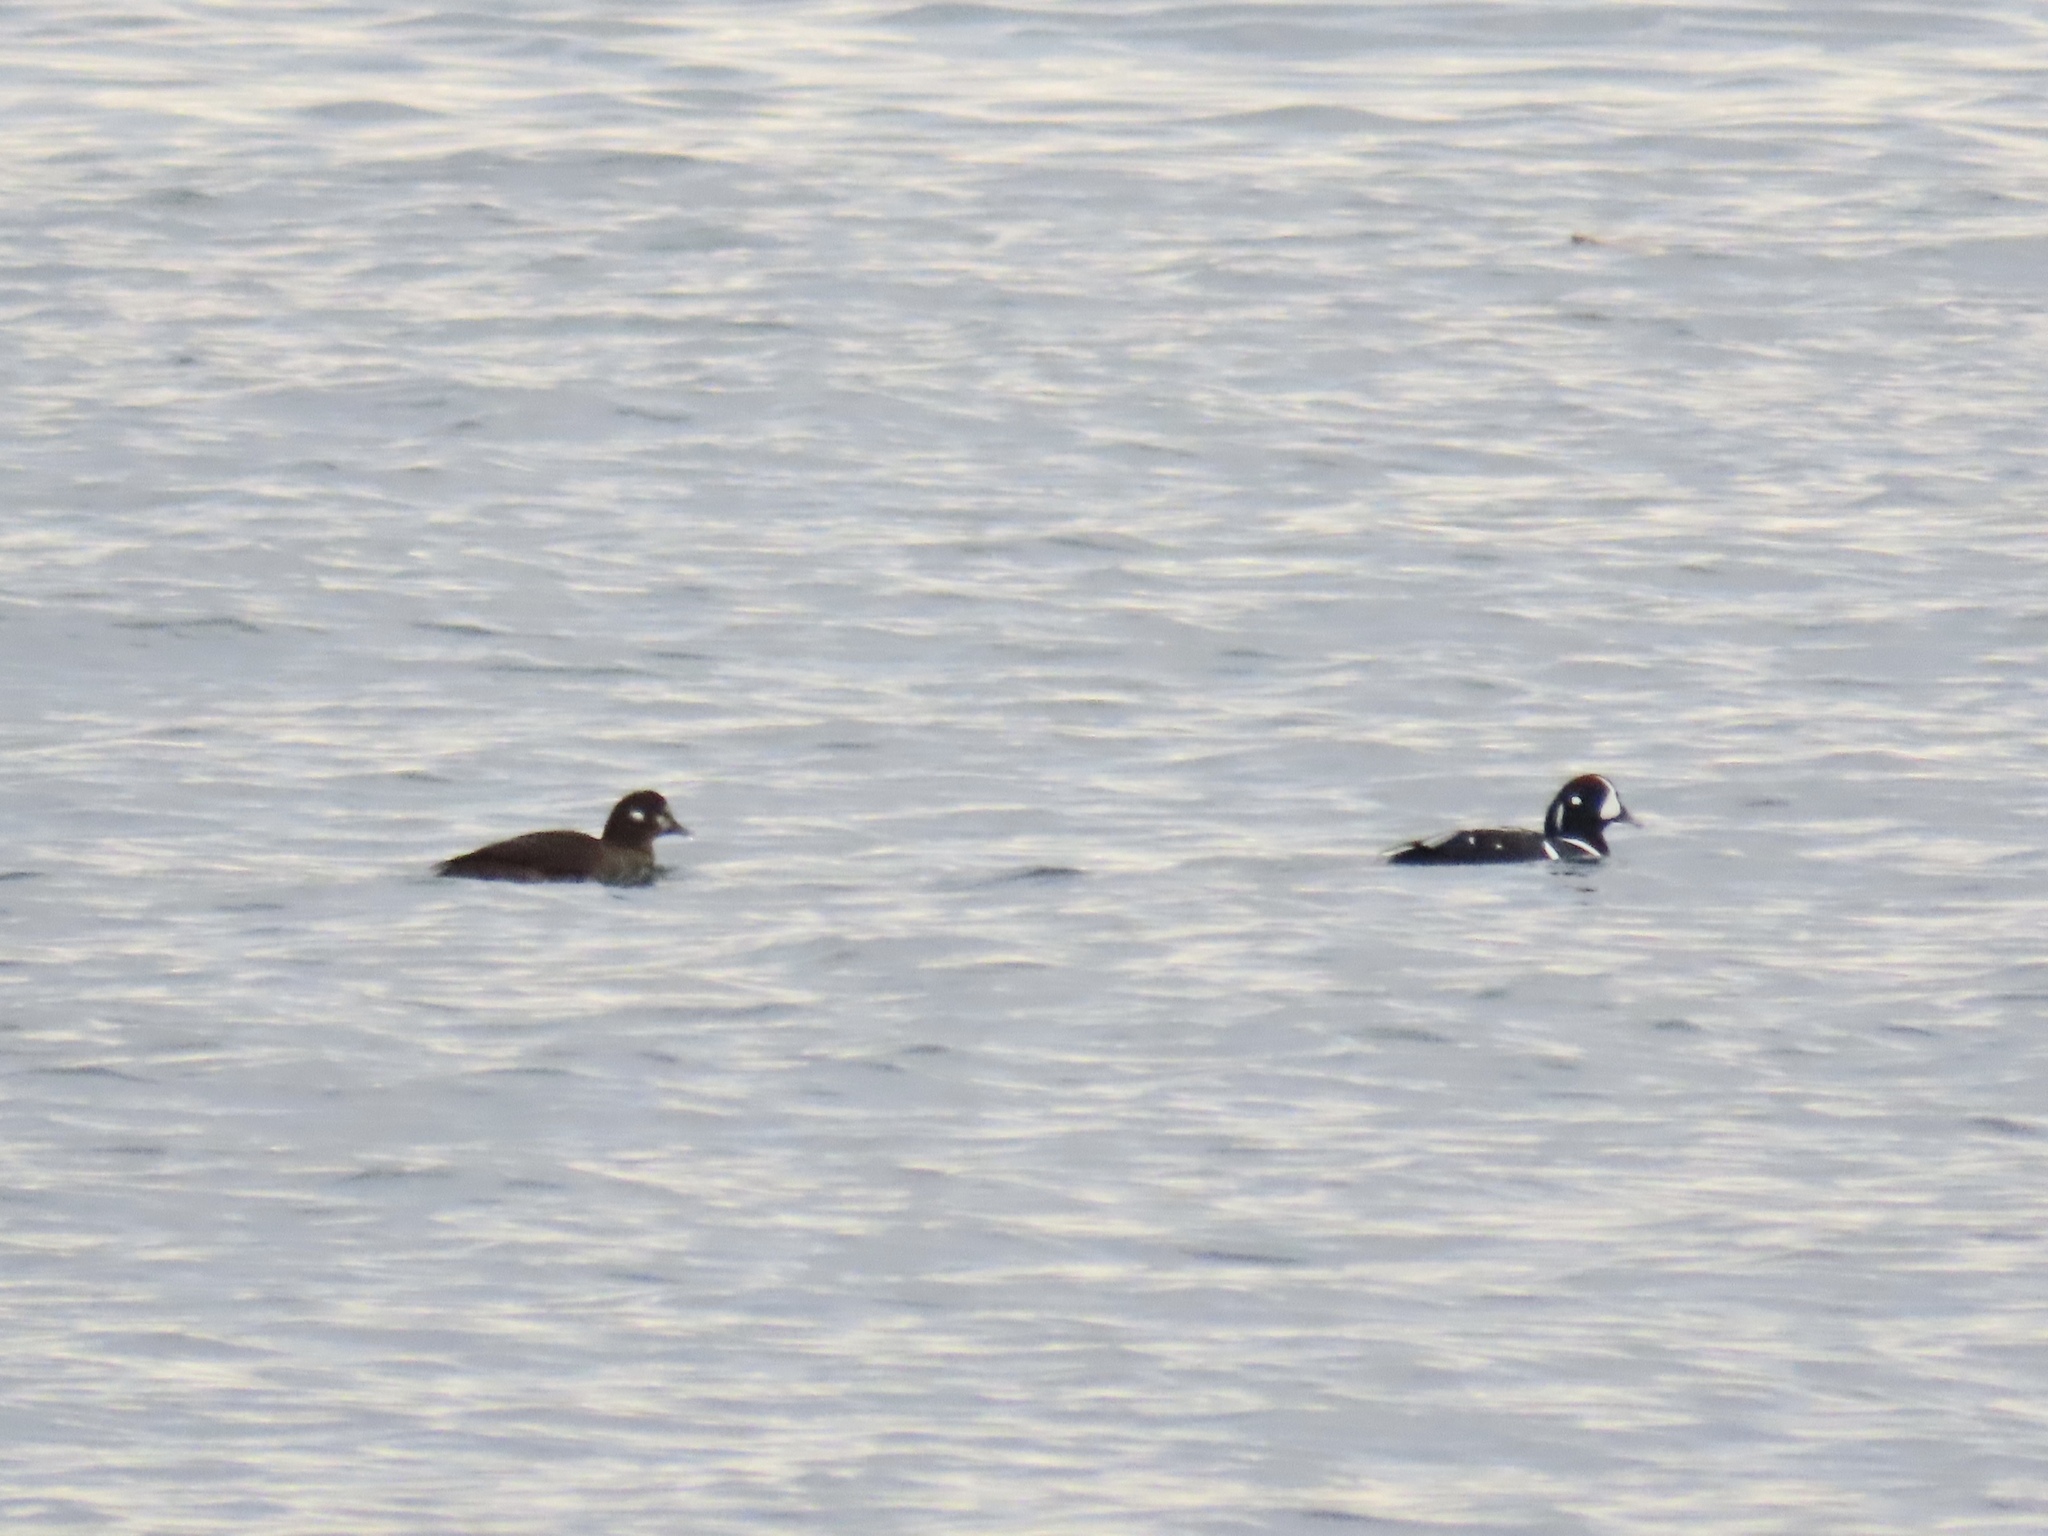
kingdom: Animalia
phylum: Chordata
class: Aves
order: Anseriformes
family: Anatidae
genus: Histrionicus
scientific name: Histrionicus histrionicus
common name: Harlequin duck
